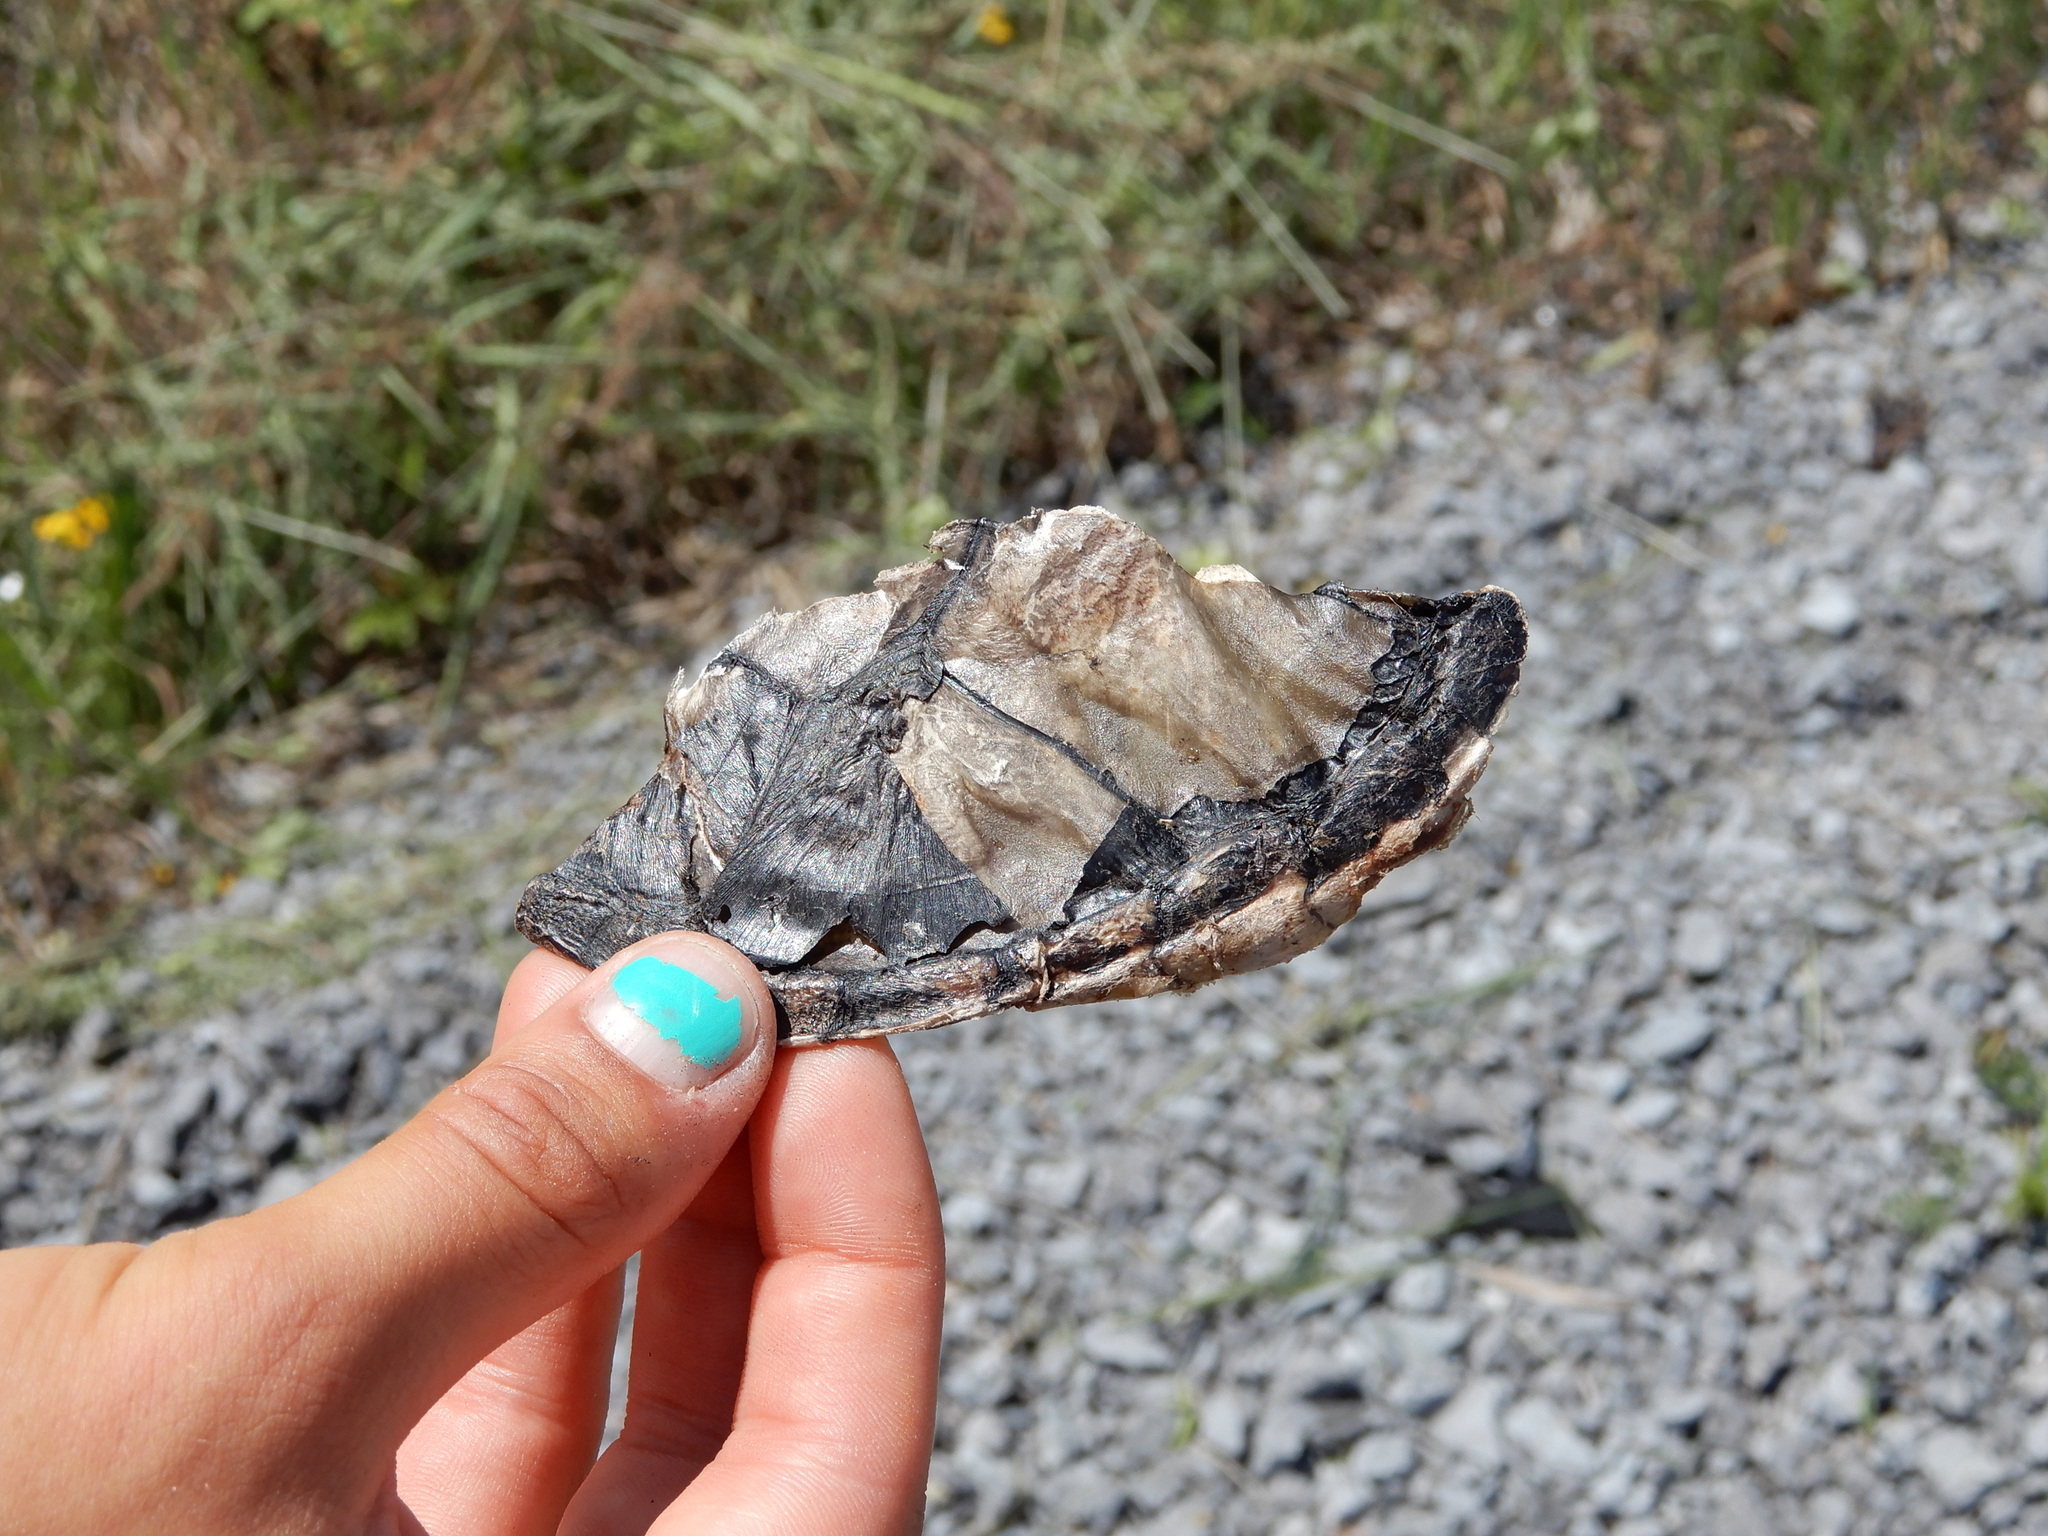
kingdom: Animalia
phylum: Chordata
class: Testudines
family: Chelydridae
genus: Chelydra
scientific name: Chelydra serpentina
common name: Common snapping turtle
